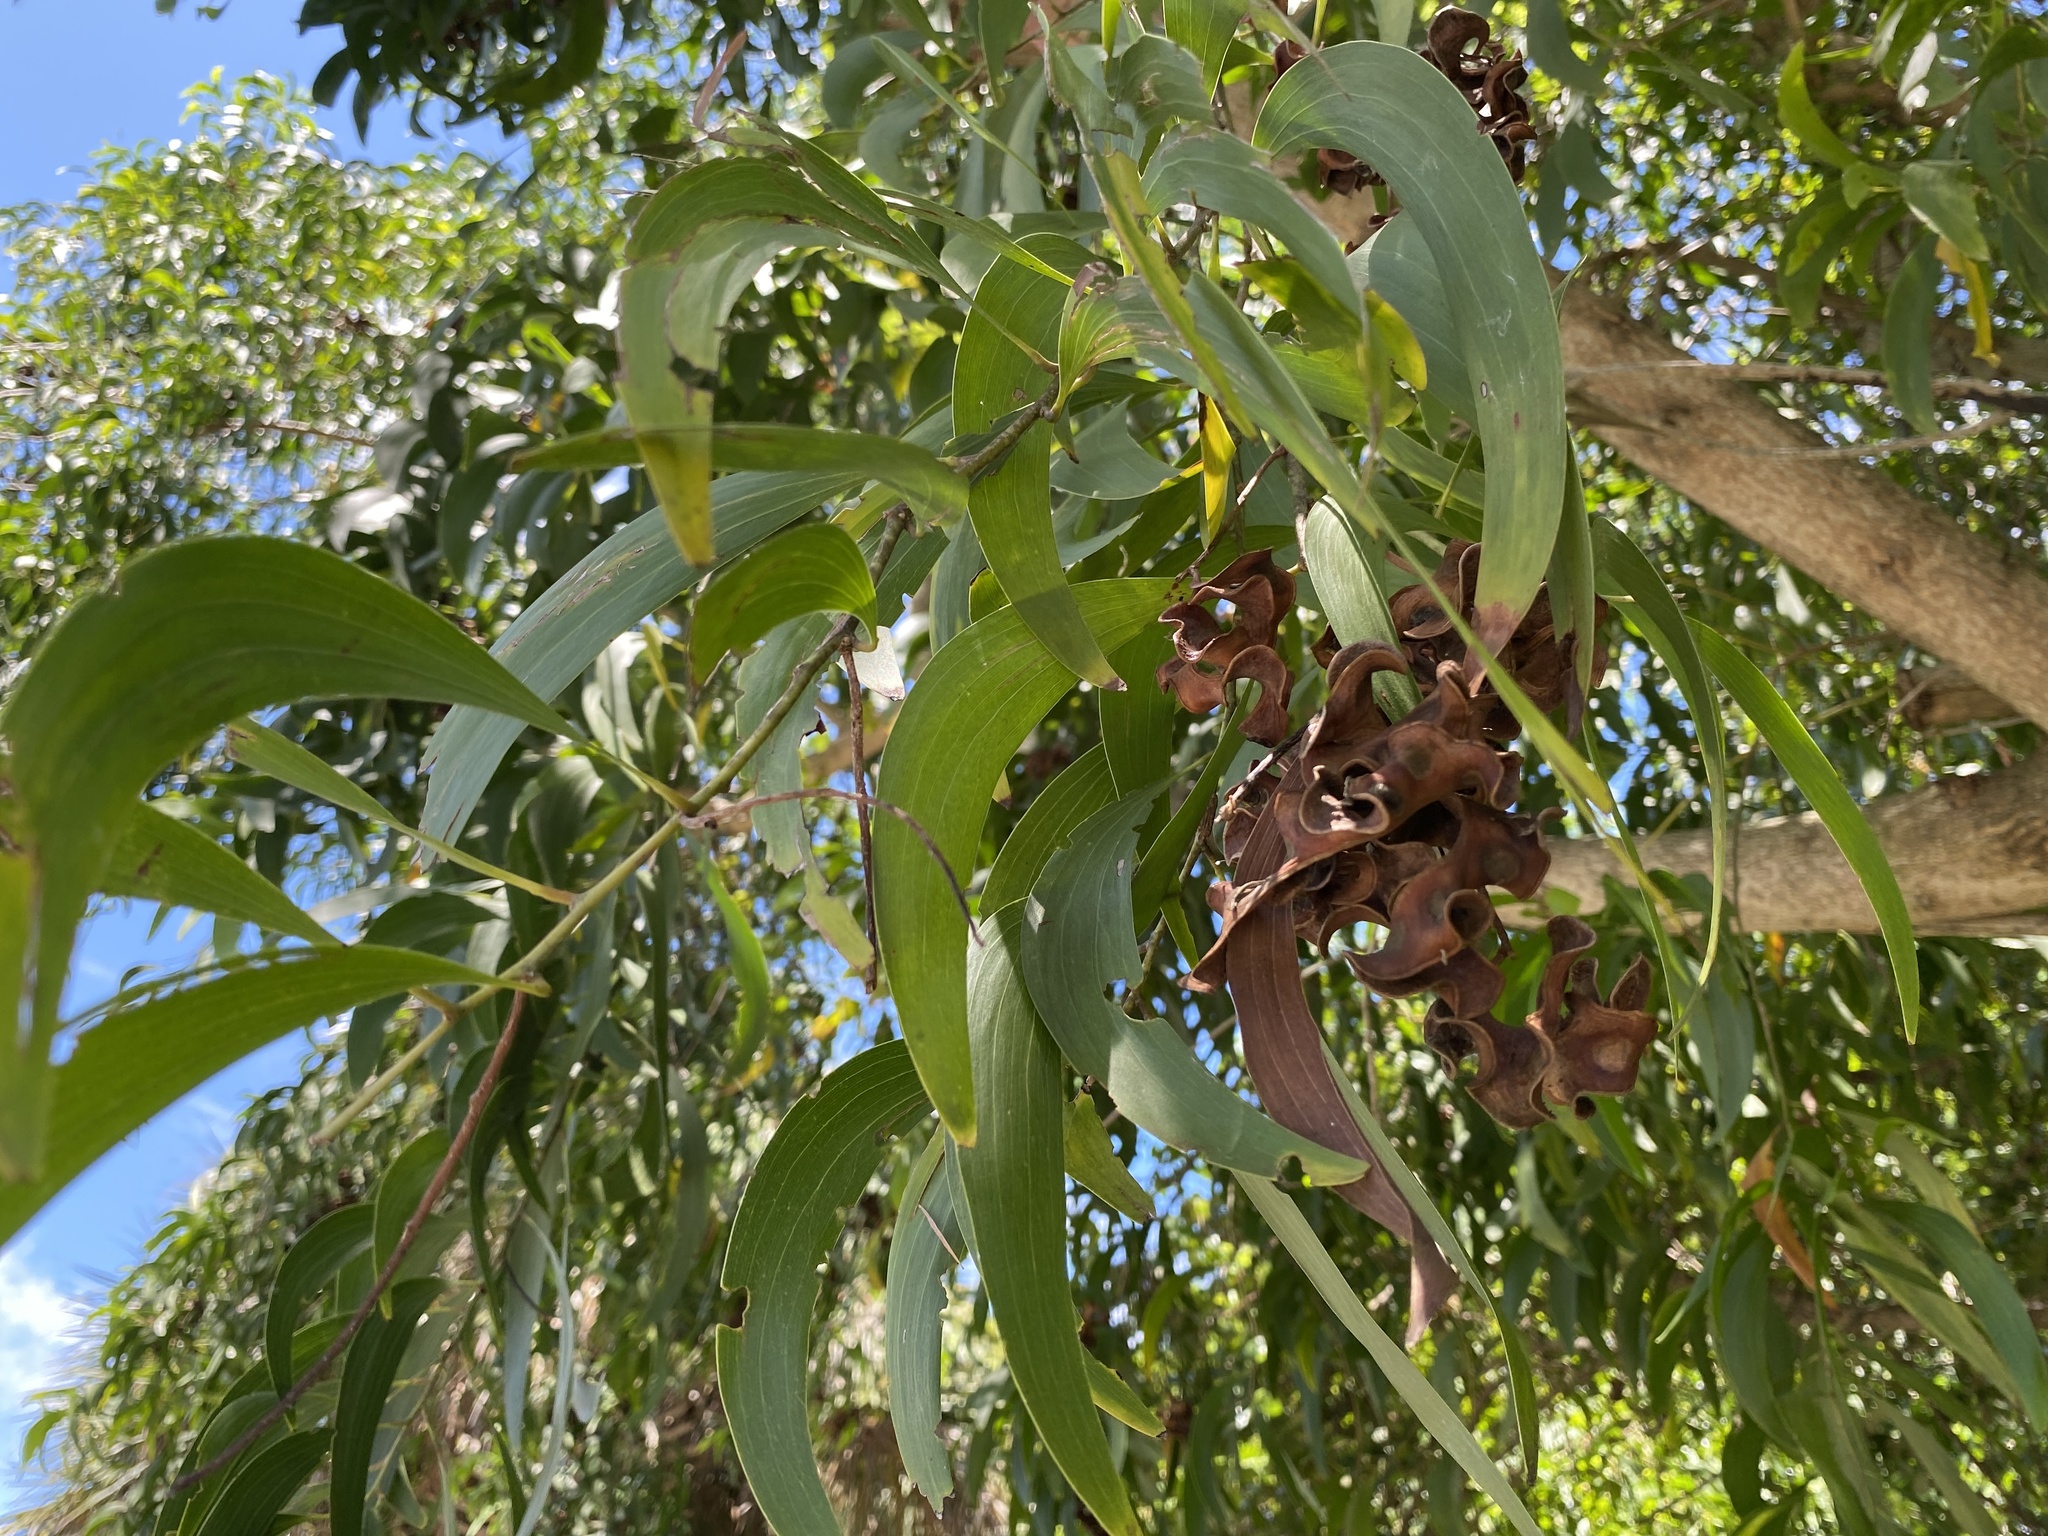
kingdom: Plantae
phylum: Tracheophyta
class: Magnoliopsida
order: Fabales
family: Fabaceae
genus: Acacia
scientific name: Acacia auriculiformis
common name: Earleaf acacia
